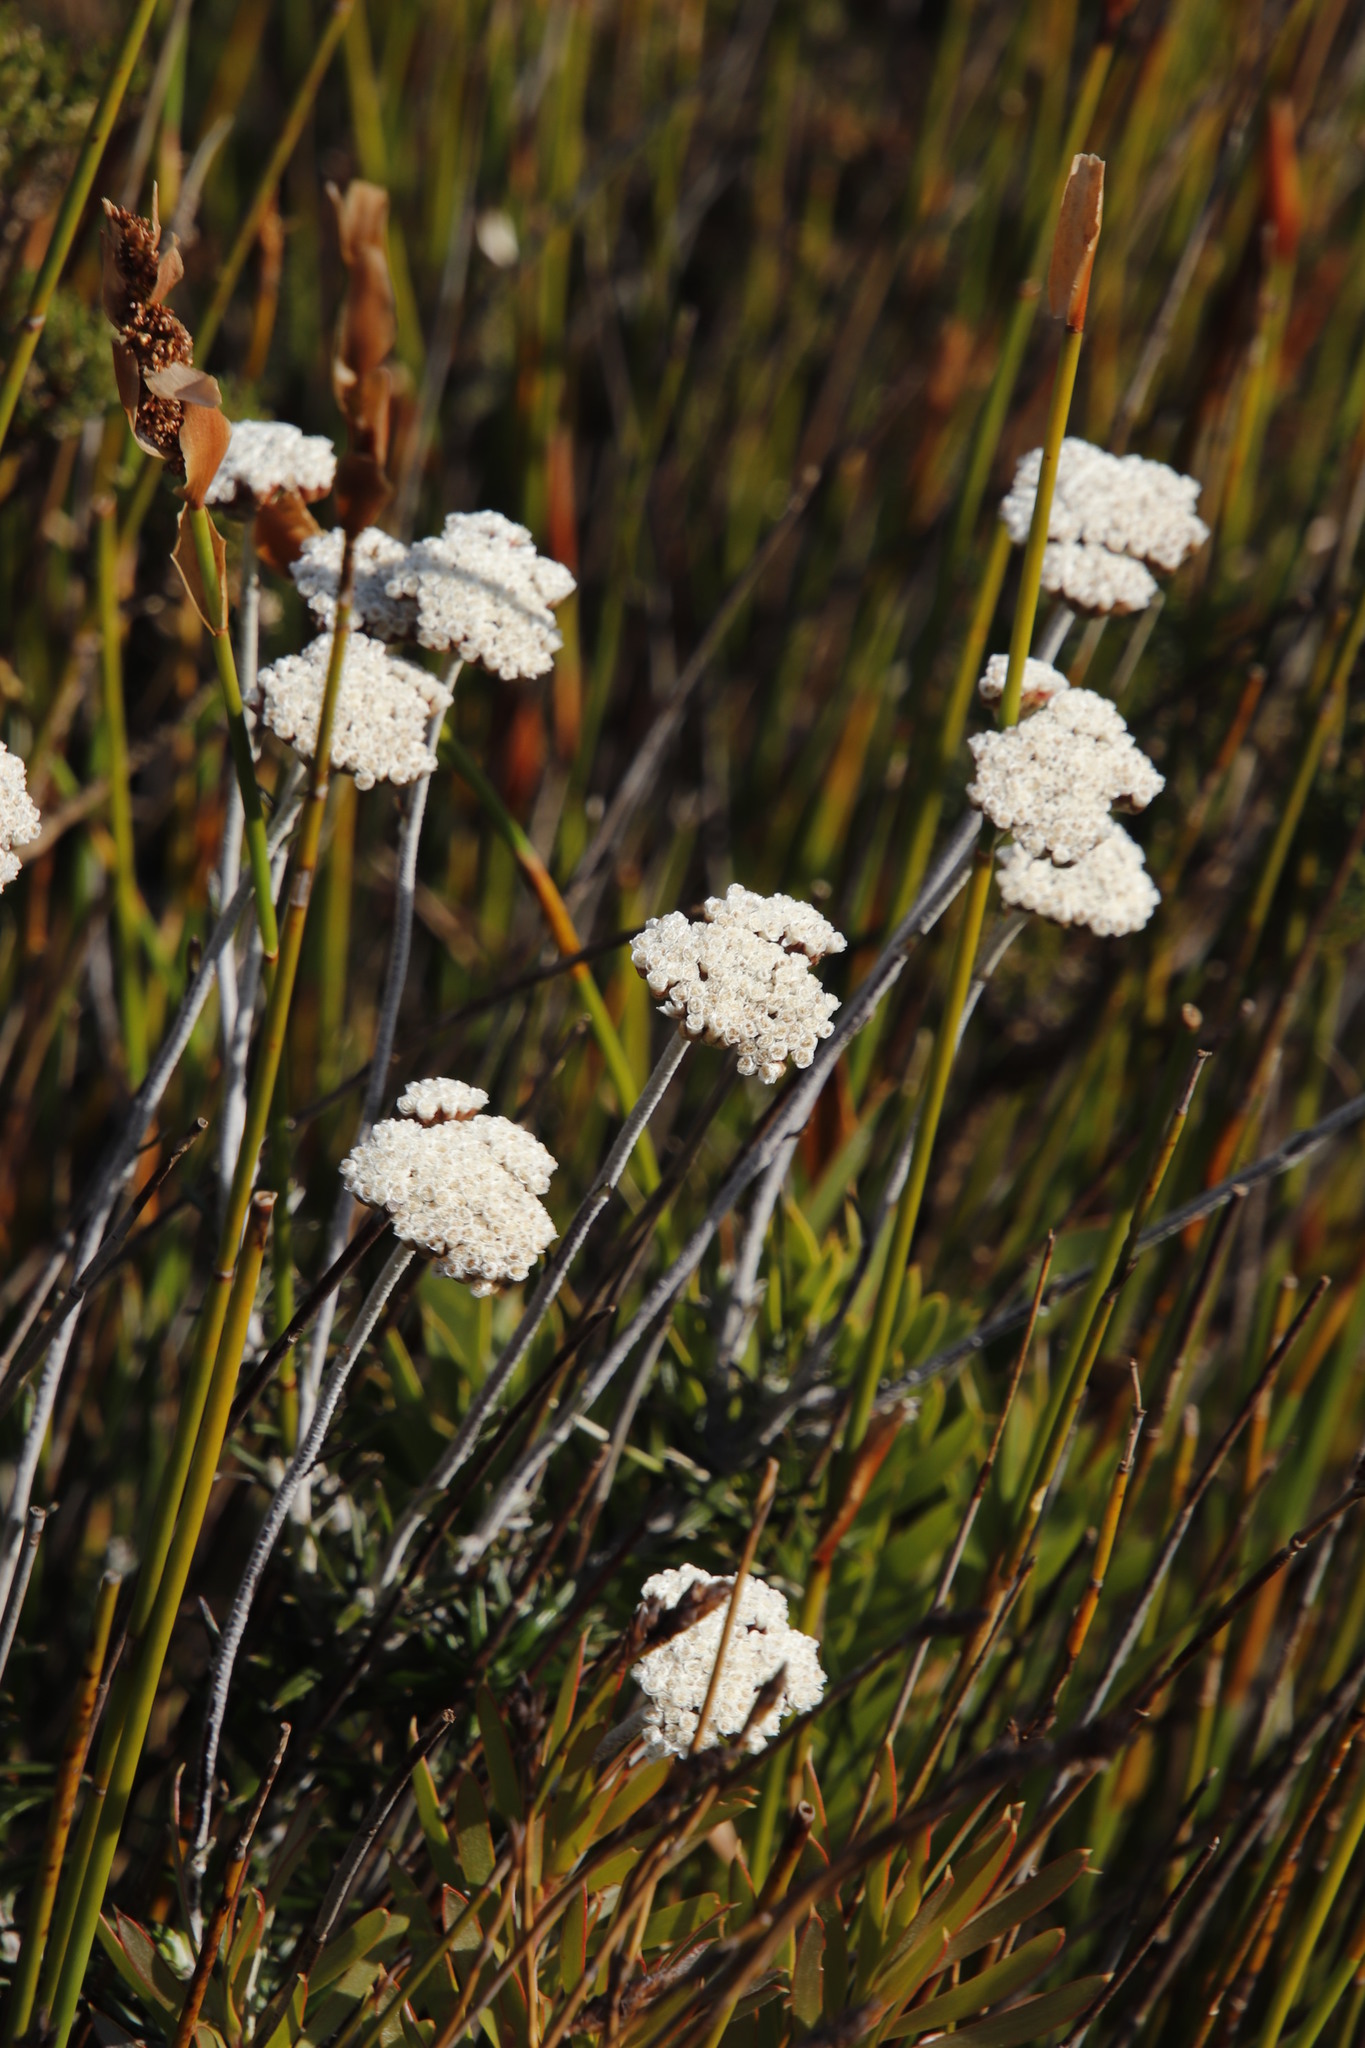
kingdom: Plantae
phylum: Tracheophyta
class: Magnoliopsida
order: Asterales
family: Asteraceae
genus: Anaxeton
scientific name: Anaxeton arborescens
